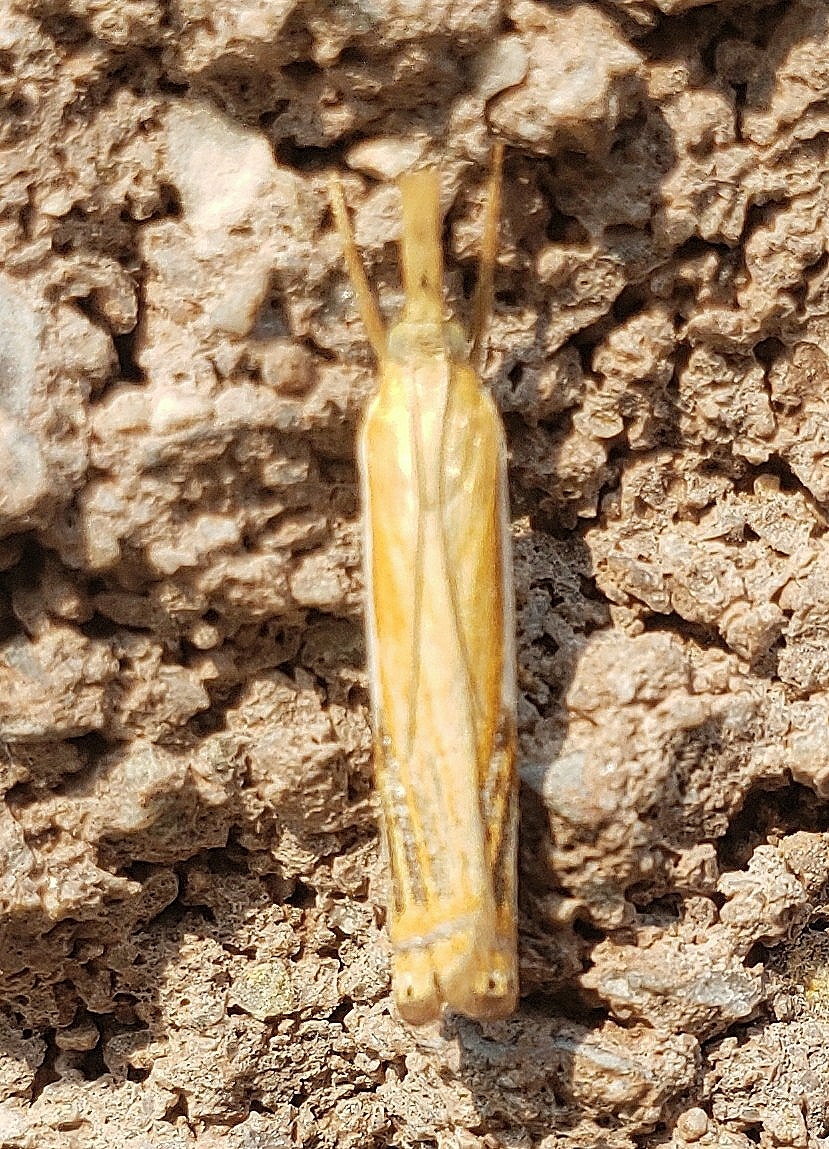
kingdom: Animalia
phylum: Arthropoda
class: Insecta
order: Lepidoptera
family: Crambidae
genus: Crambus
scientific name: Crambus agitatellus
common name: Double-banded grass-veneer
